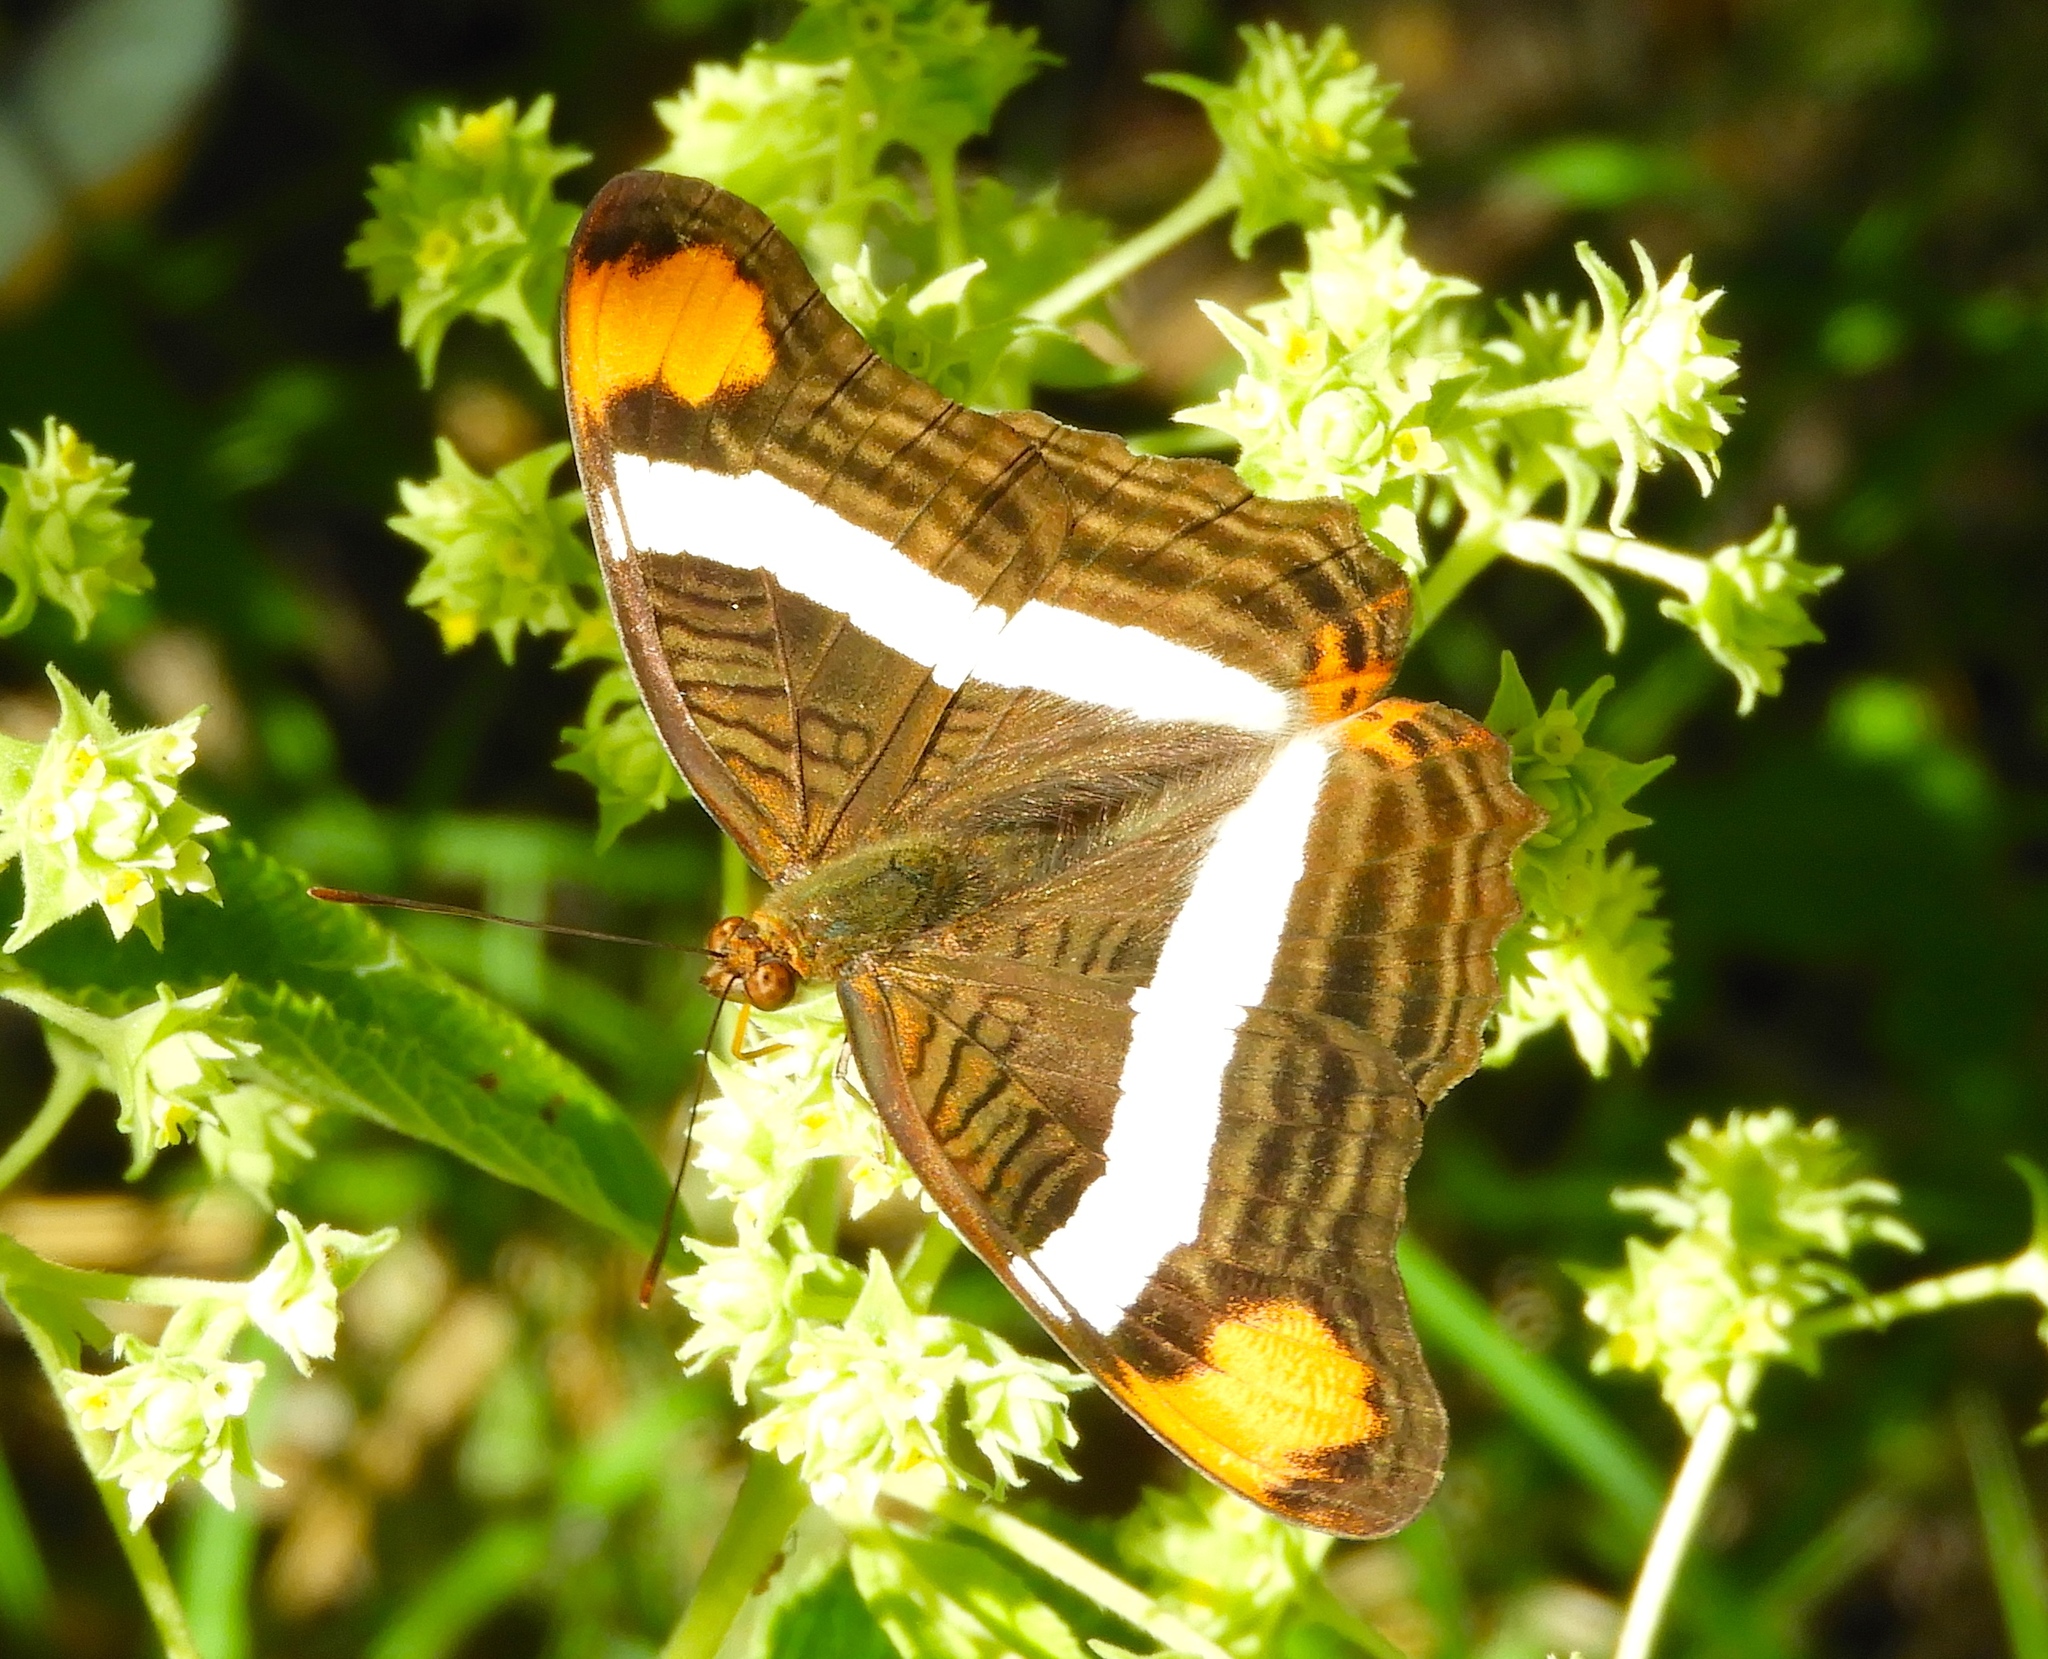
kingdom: Animalia
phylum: Arthropoda
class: Insecta
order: Lepidoptera
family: Nymphalidae
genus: Limenitis
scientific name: Limenitis fessonia
